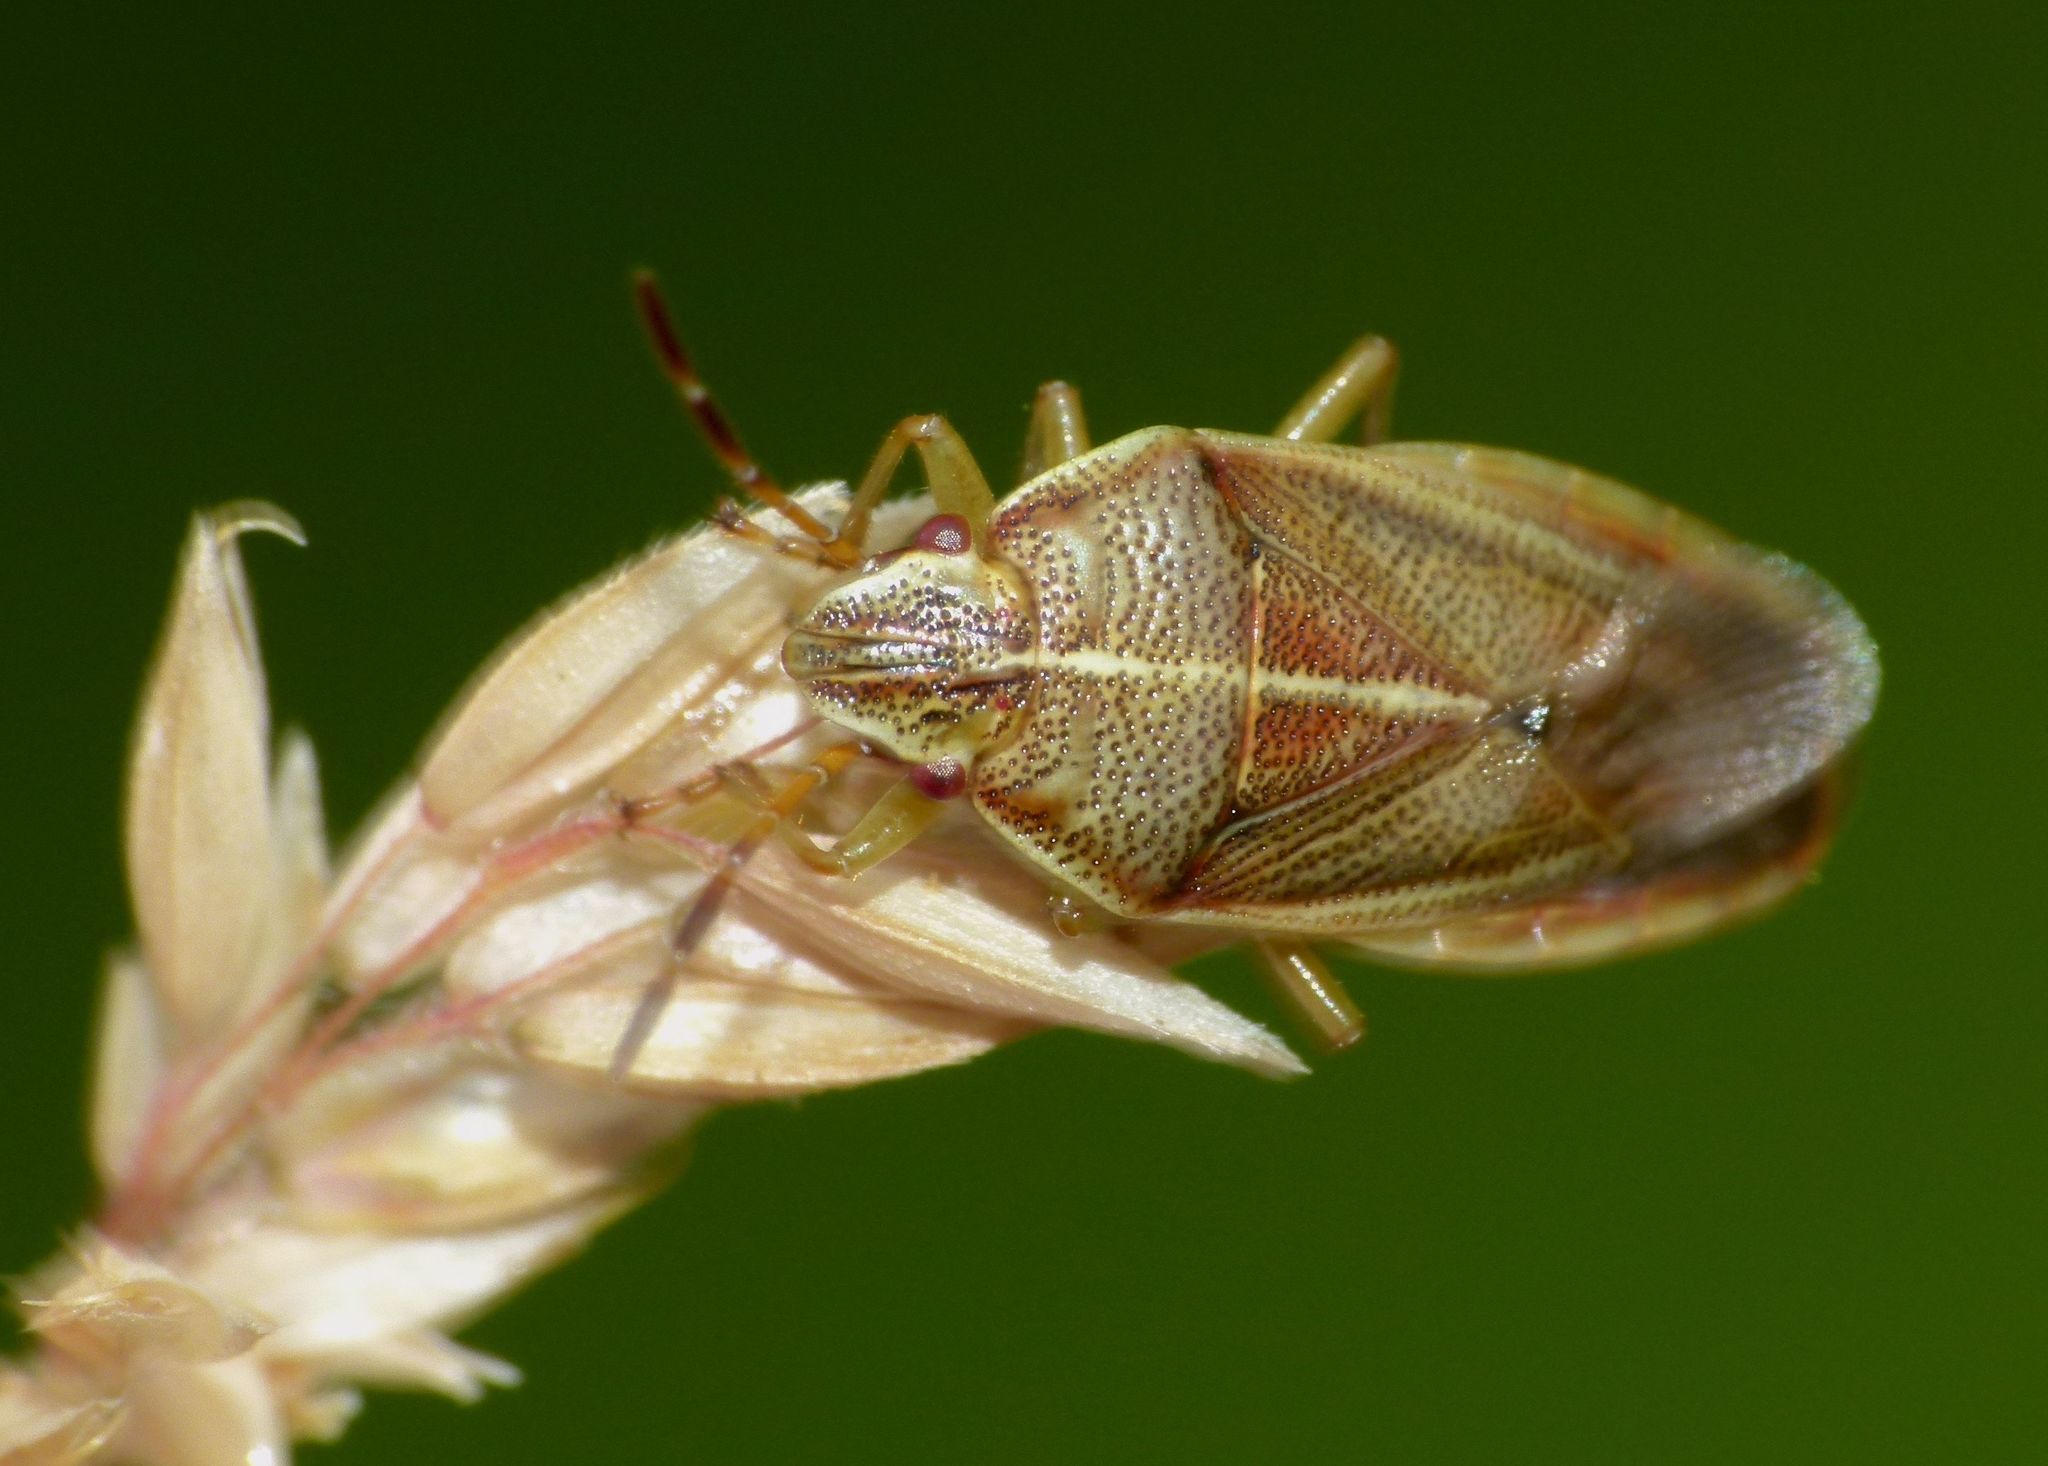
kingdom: Animalia
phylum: Arthropoda
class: Insecta
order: Hemiptera
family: Acanthosomatidae
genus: Rhopalimorpha
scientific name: Rhopalimorpha lineolaris
